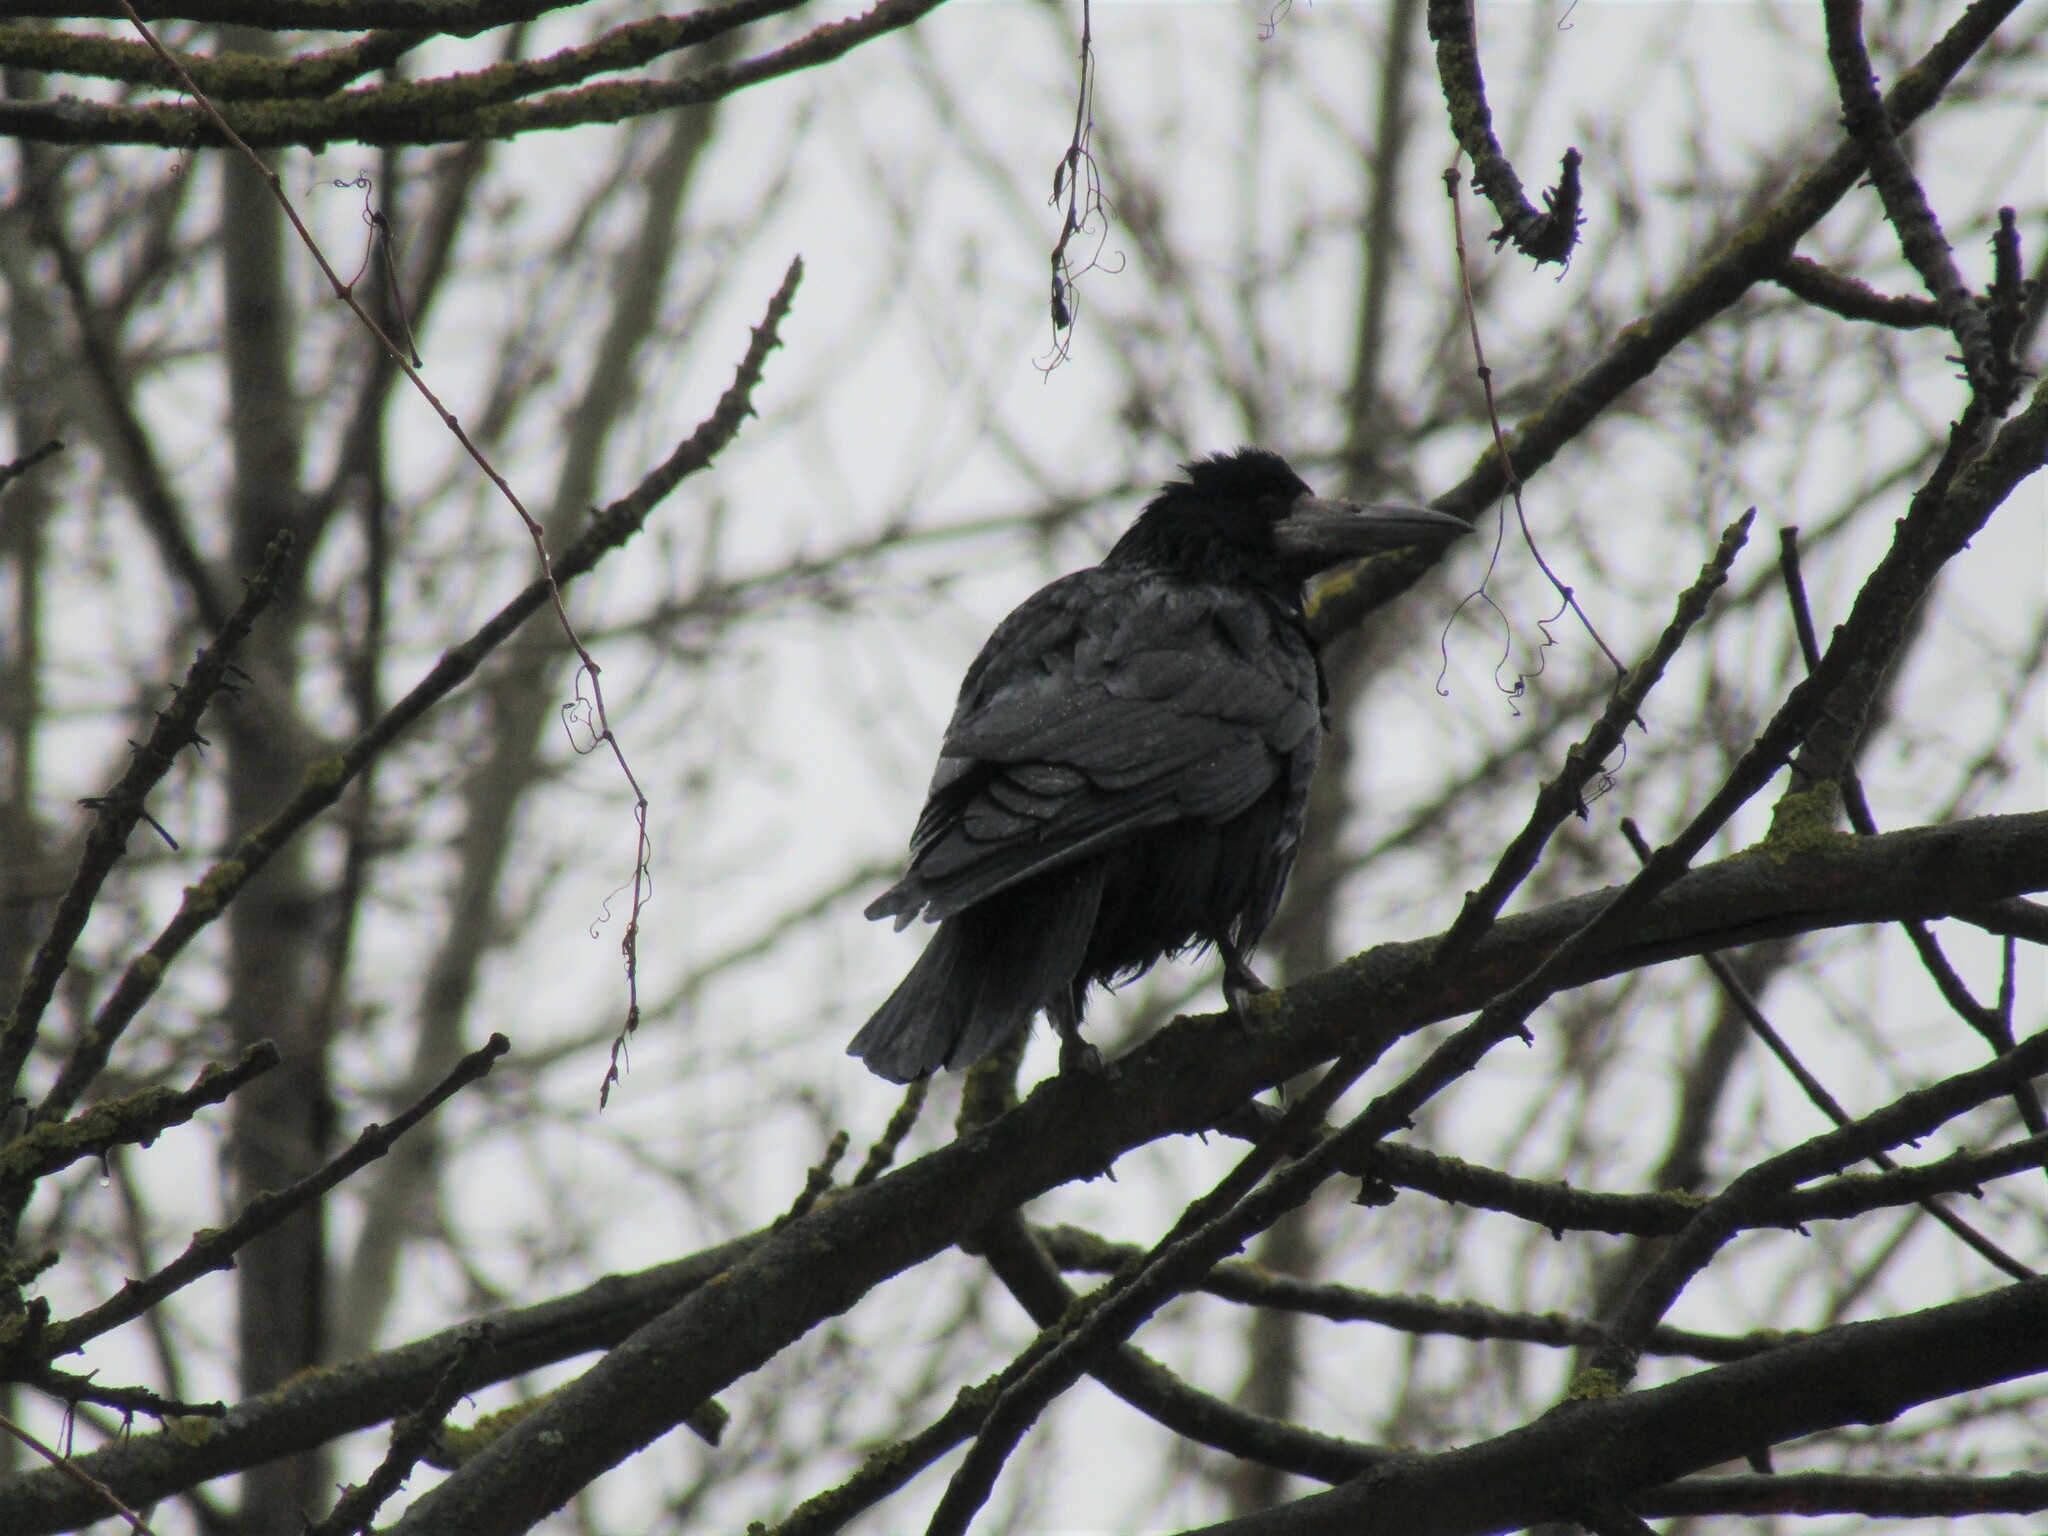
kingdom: Animalia
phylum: Chordata
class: Aves
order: Passeriformes
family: Corvidae
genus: Corvus
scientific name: Corvus frugilegus
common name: Rook
